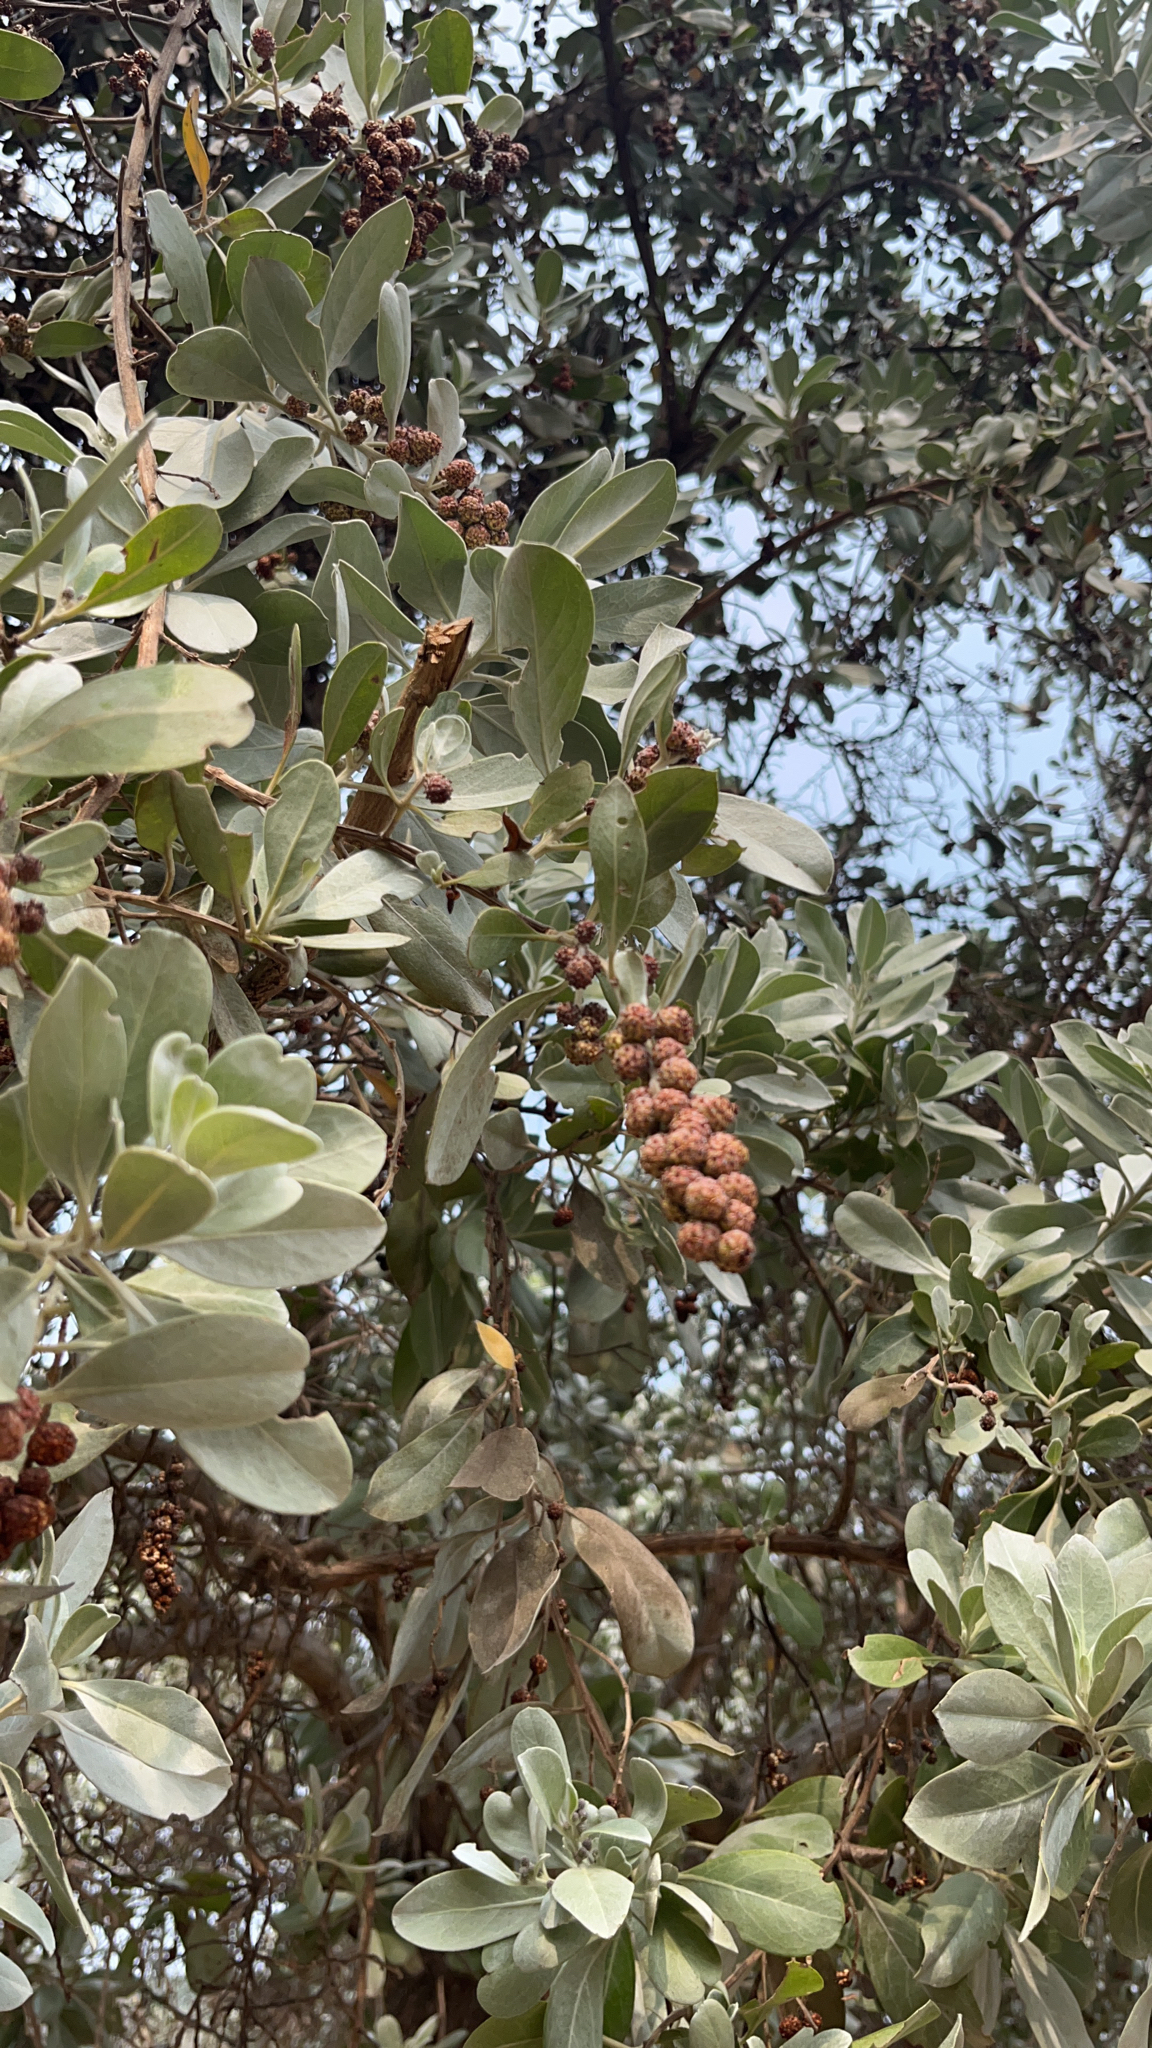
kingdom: Plantae
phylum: Tracheophyta
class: Magnoliopsida
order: Myrtales
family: Combretaceae
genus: Conocarpus
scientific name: Conocarpus erectus
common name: Button mangrove
